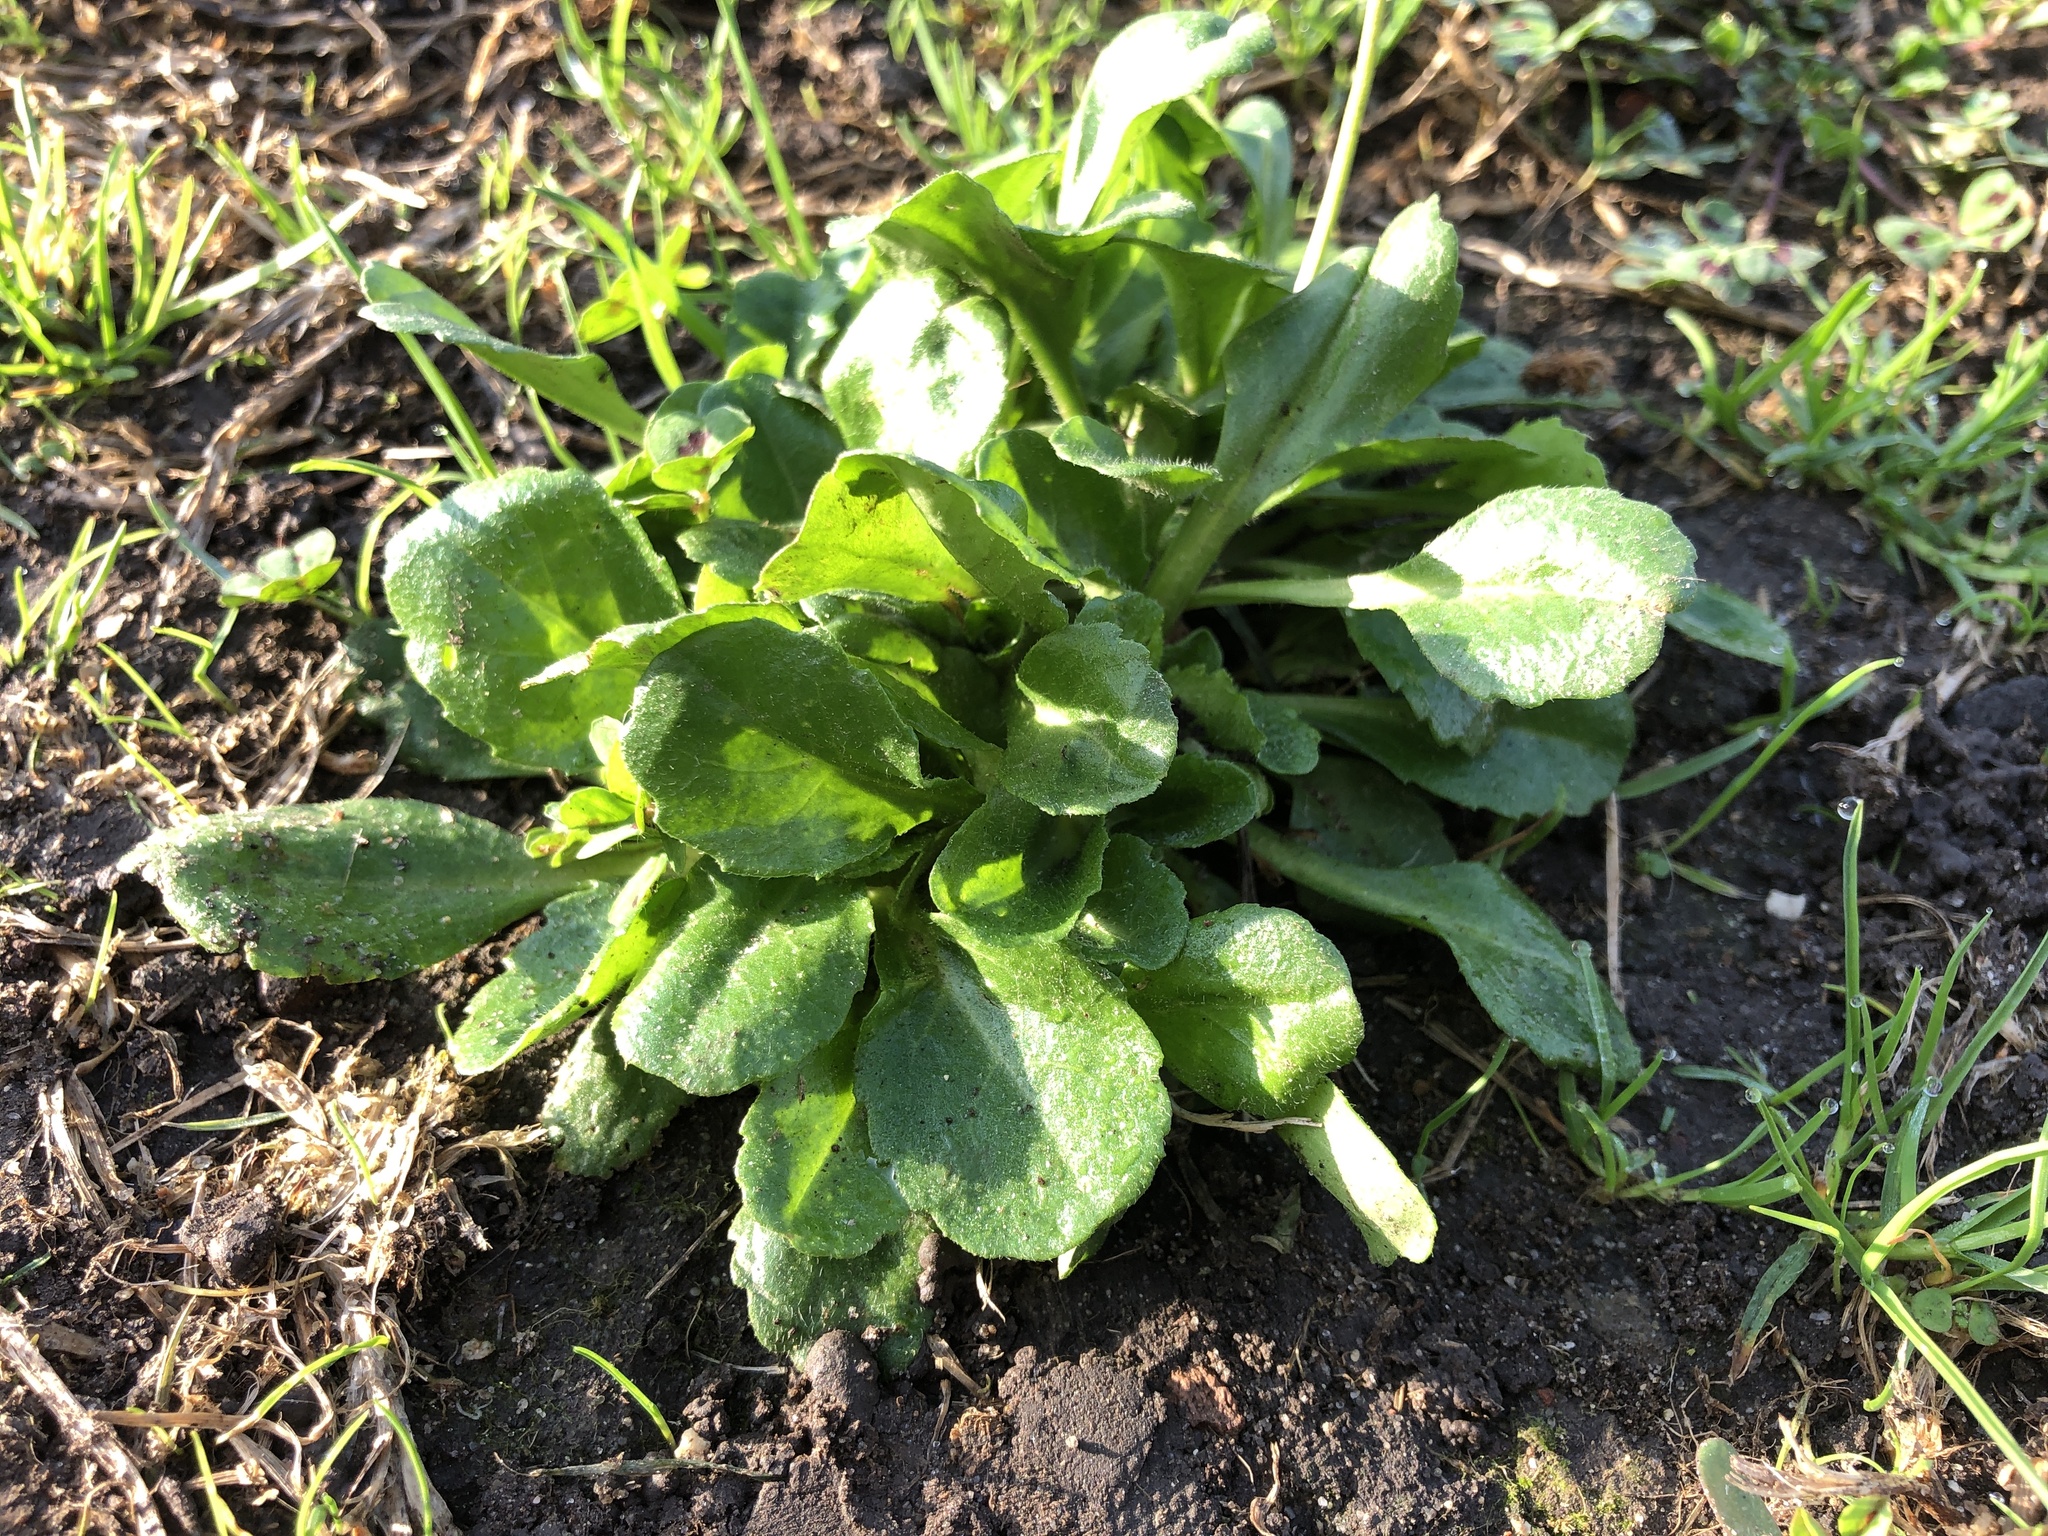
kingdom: Plantae
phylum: Tracheophyta
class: Magnoliopsida
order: Asterales
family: Asteraceae
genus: Bellis
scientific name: Bellis perennis
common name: Lawndaisy
